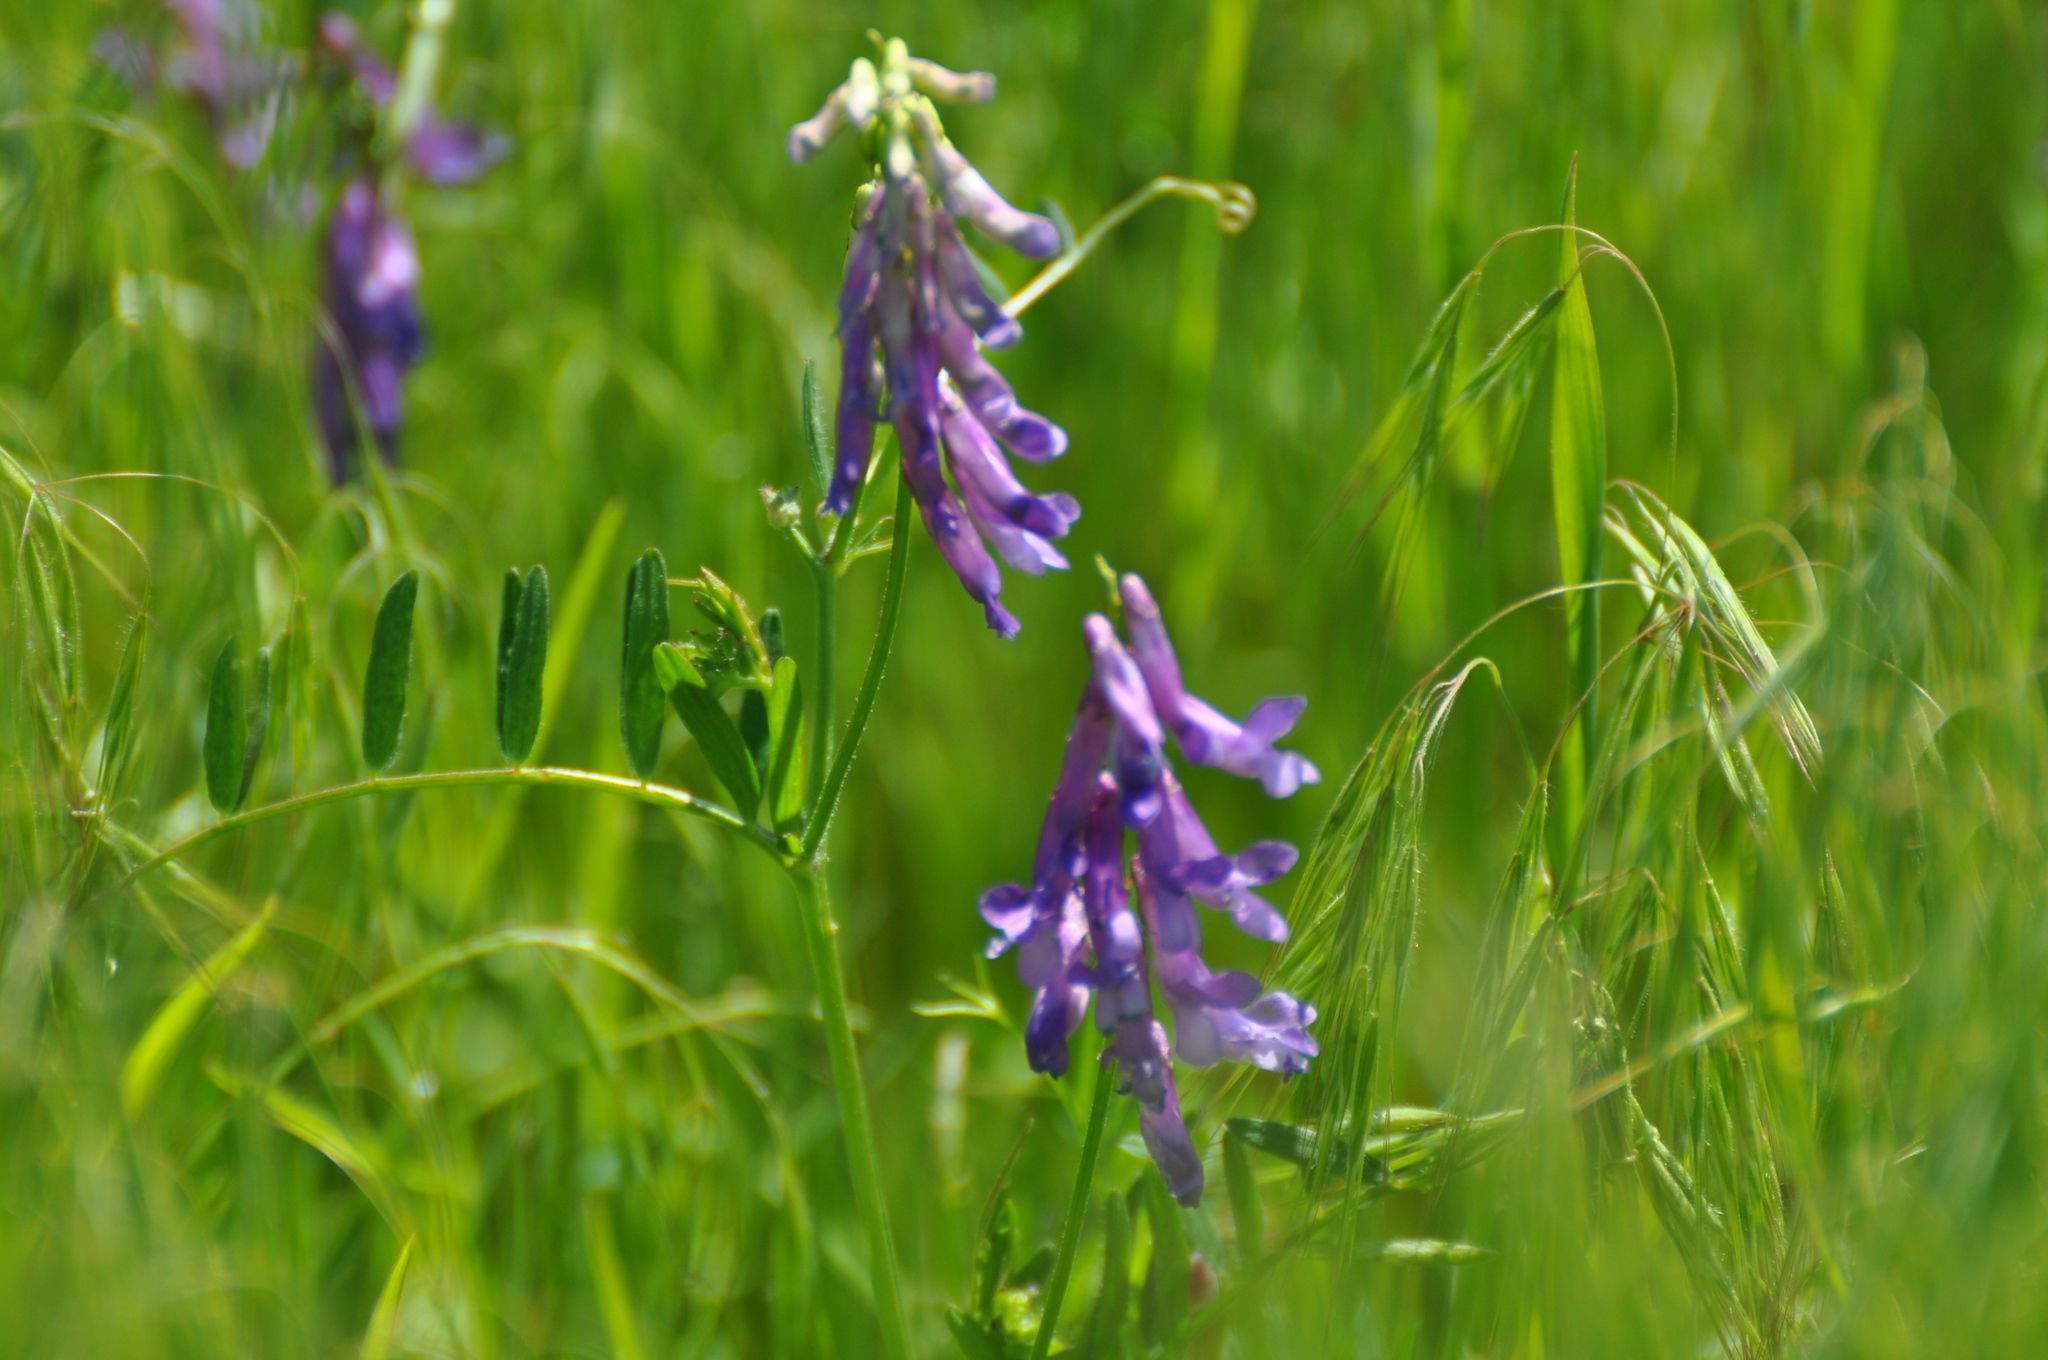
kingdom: Plantae
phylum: Tracheophyta
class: Magnoliopsida
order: Fabales
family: Fabaceae
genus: Vicia
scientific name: Vicia villosa
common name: Fodder vetch
